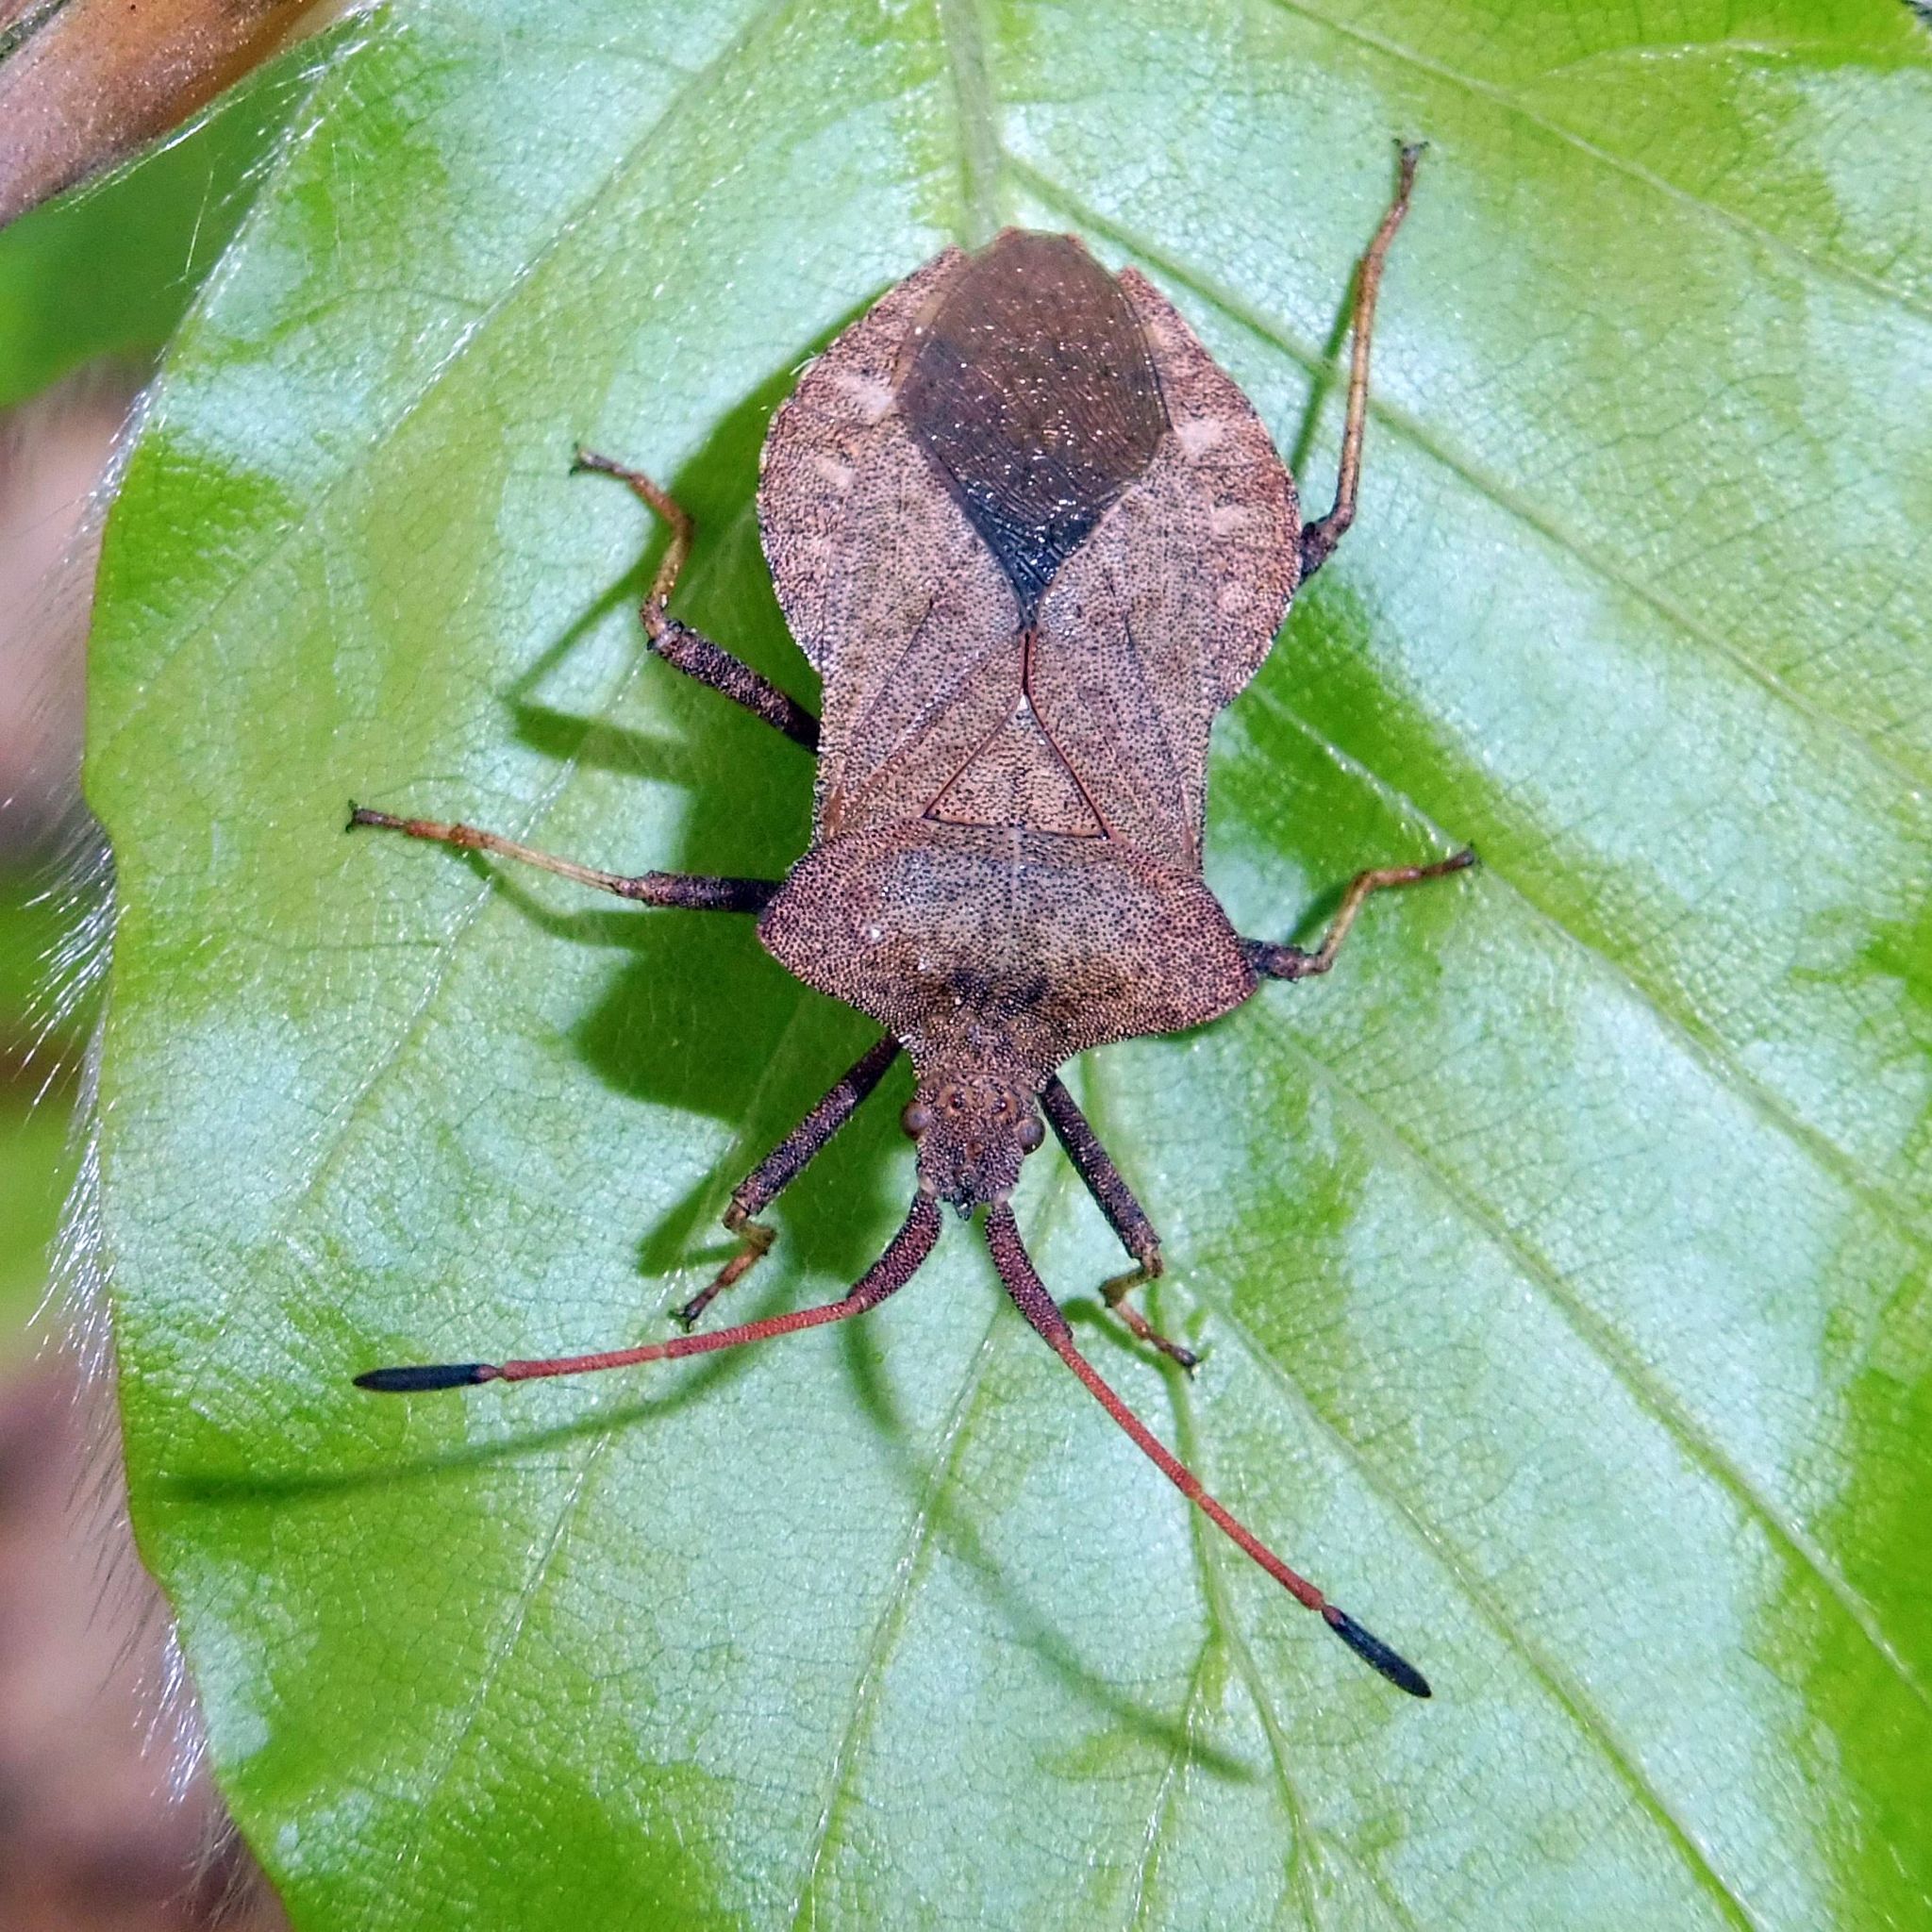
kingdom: Animalia
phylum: Arthropoda
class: Insecta
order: Hemiptera
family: Coreidae
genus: Coreus
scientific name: Coreus marginatus
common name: Dock bug
